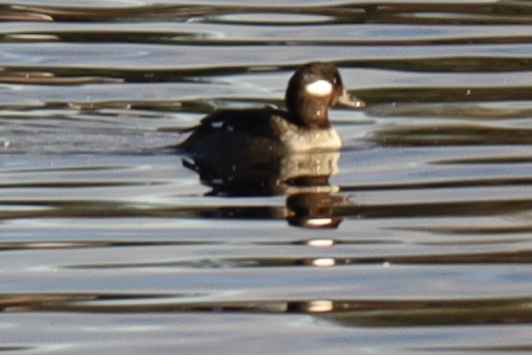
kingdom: Animalia
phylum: Chordata
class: Aves
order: Anseriformes
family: Anatidae
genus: Bucephala
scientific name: Bucephala albeola
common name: Bufflehead
